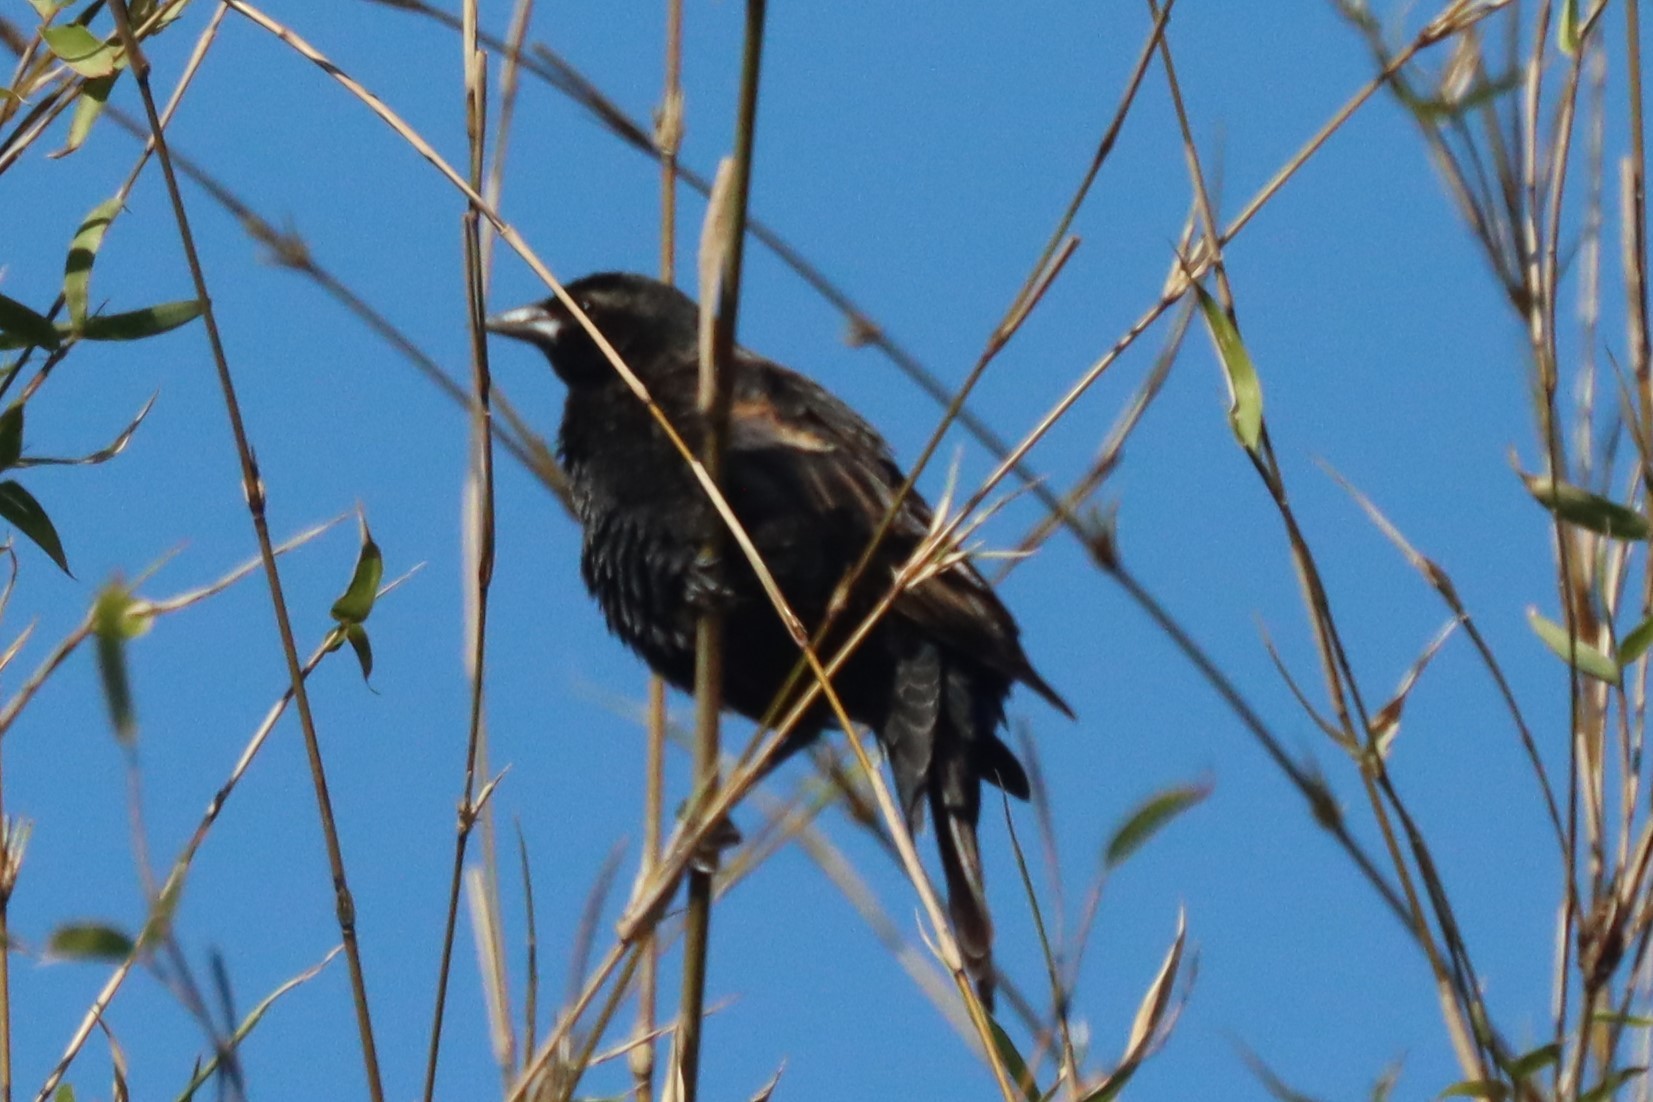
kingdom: Animalia
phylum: Chordata
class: Aves
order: Passeriformes
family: Icteridae
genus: Agelaius
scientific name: Agelaius phoeniceus
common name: Red-winged blackbird
